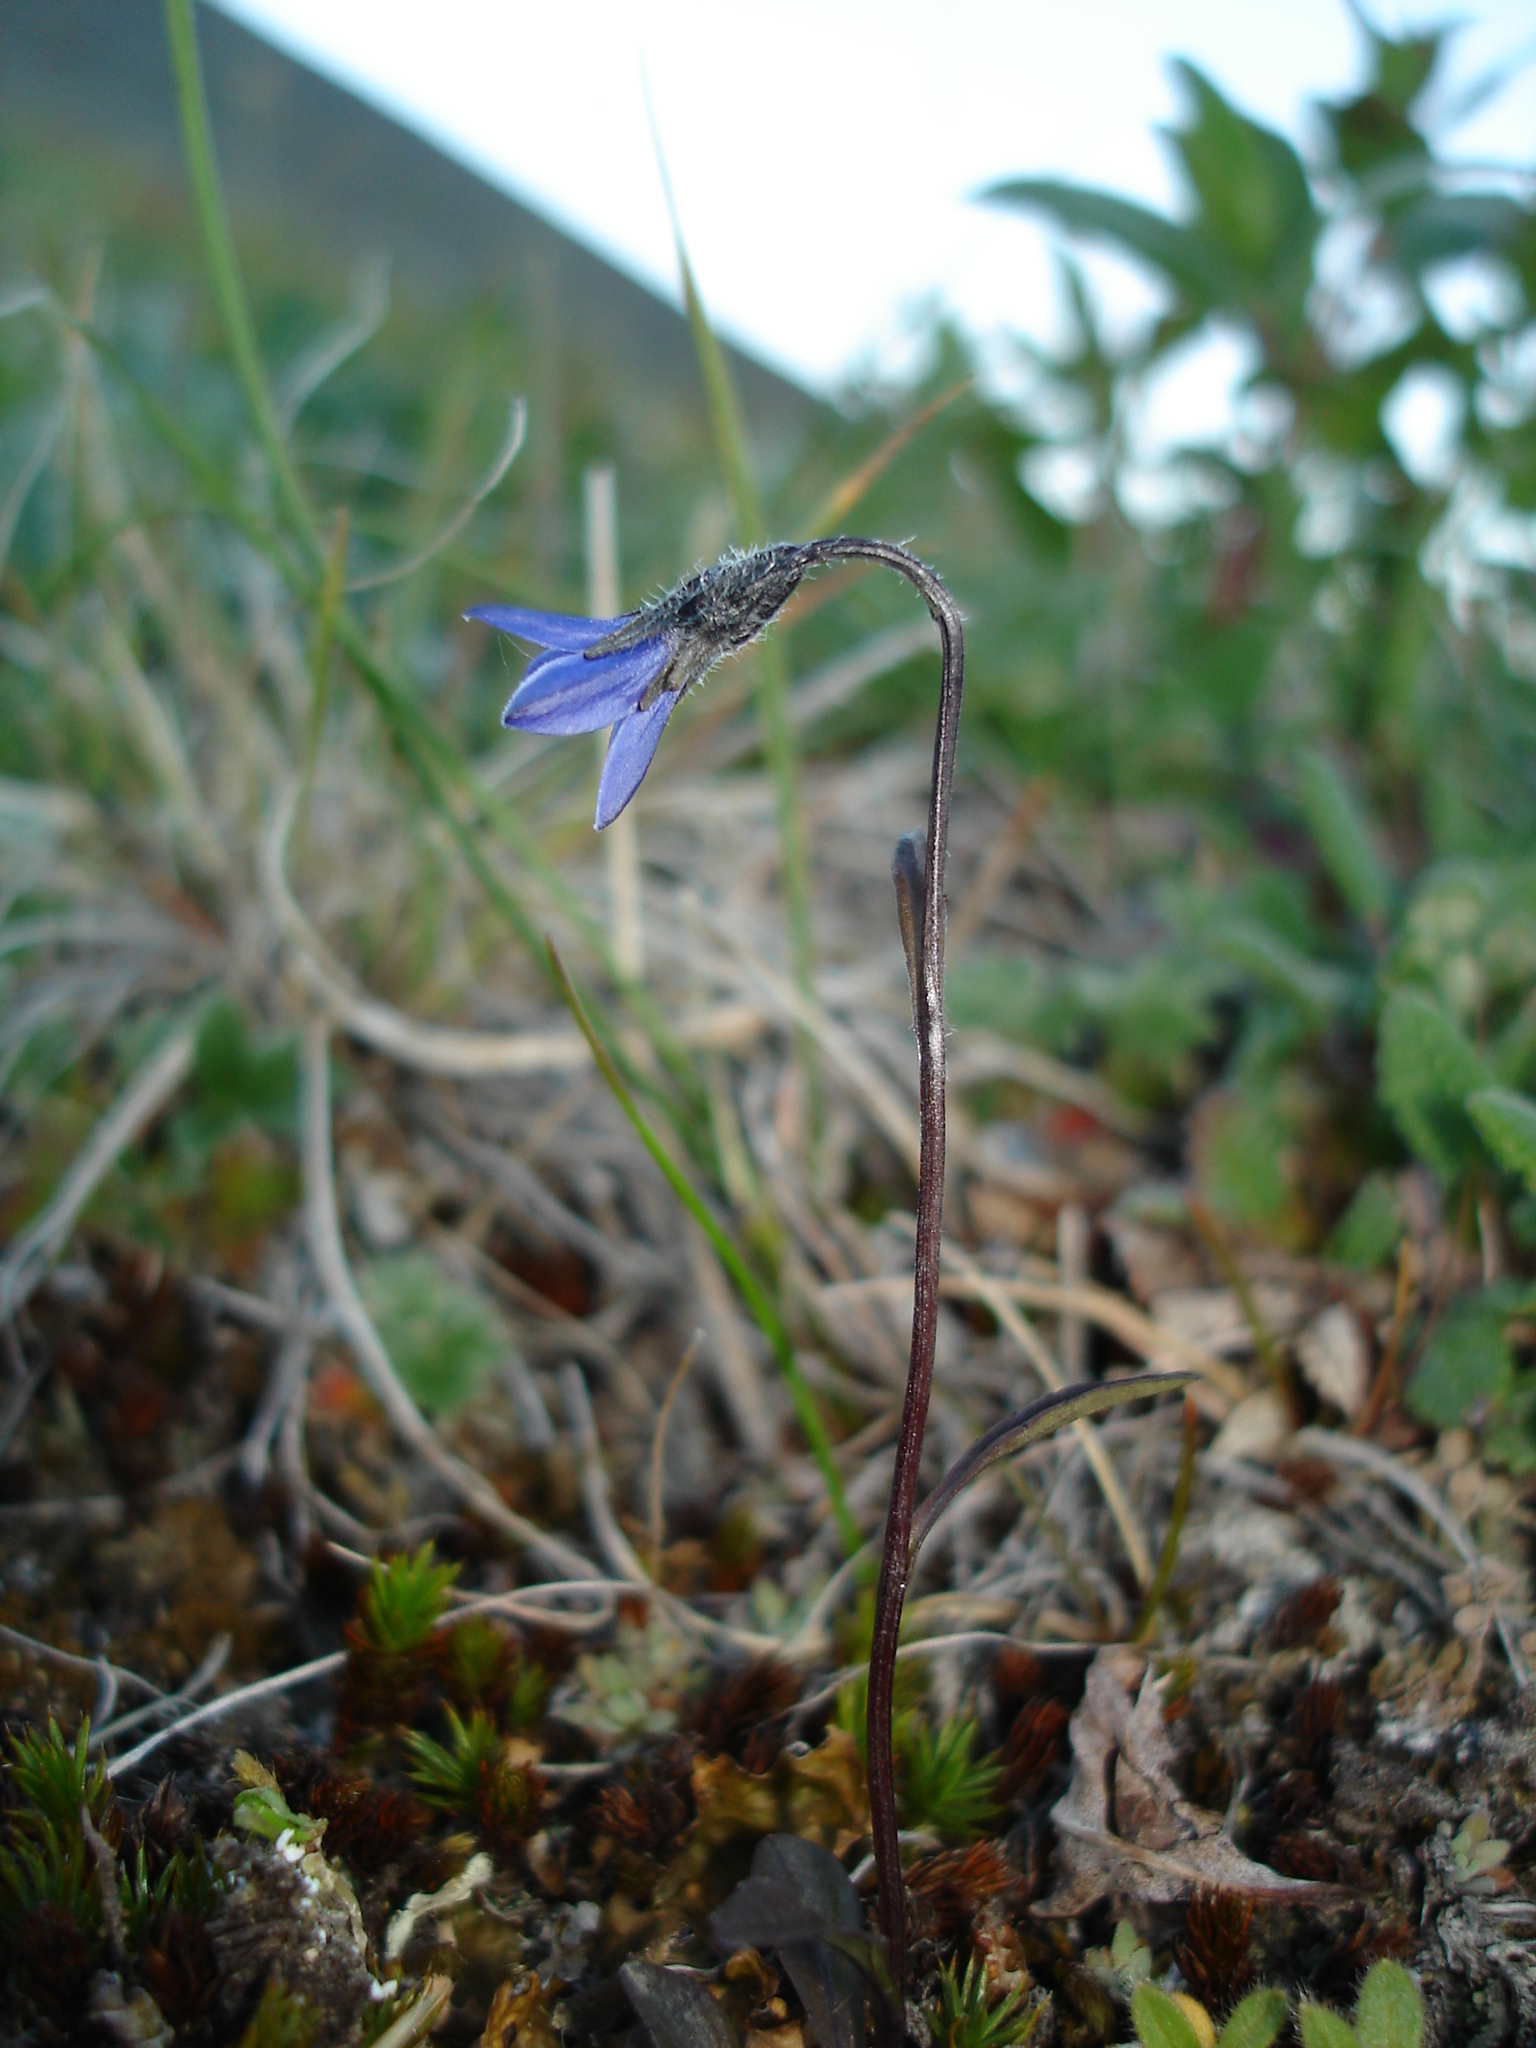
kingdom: Plantae
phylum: Tracheophyta
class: Magnoliopsida
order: Asterales
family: Campanulaceae
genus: Campanula
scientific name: Campanula uniflora
